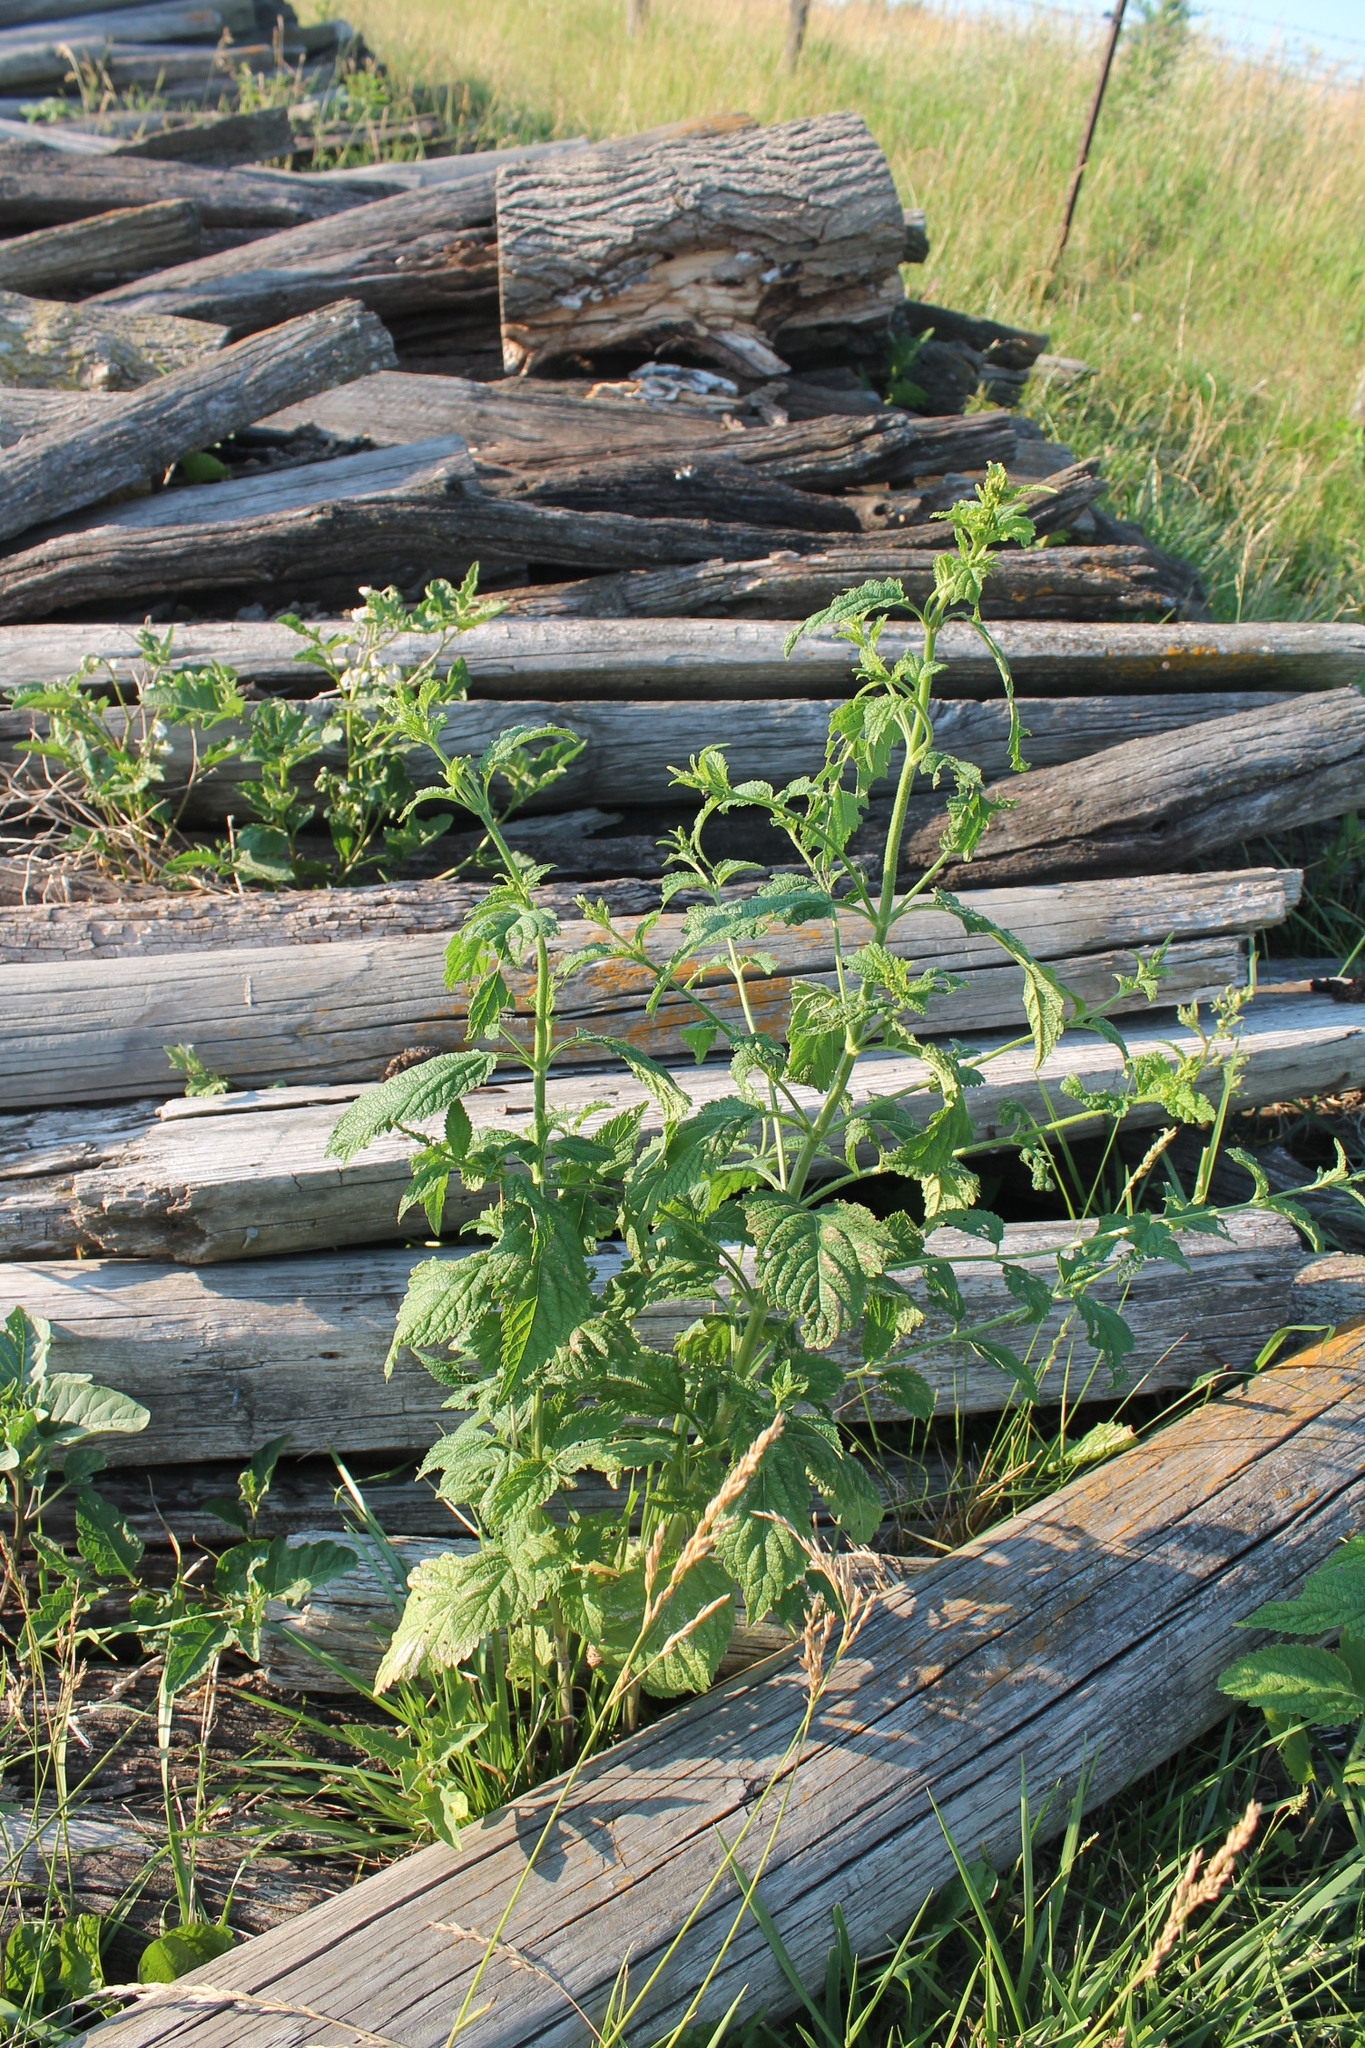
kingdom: Plantae
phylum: Tracheophyta
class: Magnoliopsida
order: Lamiales
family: Verbenaceae
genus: Verbena
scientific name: Verbena urticifolia
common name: Nettle-leaved vervain
